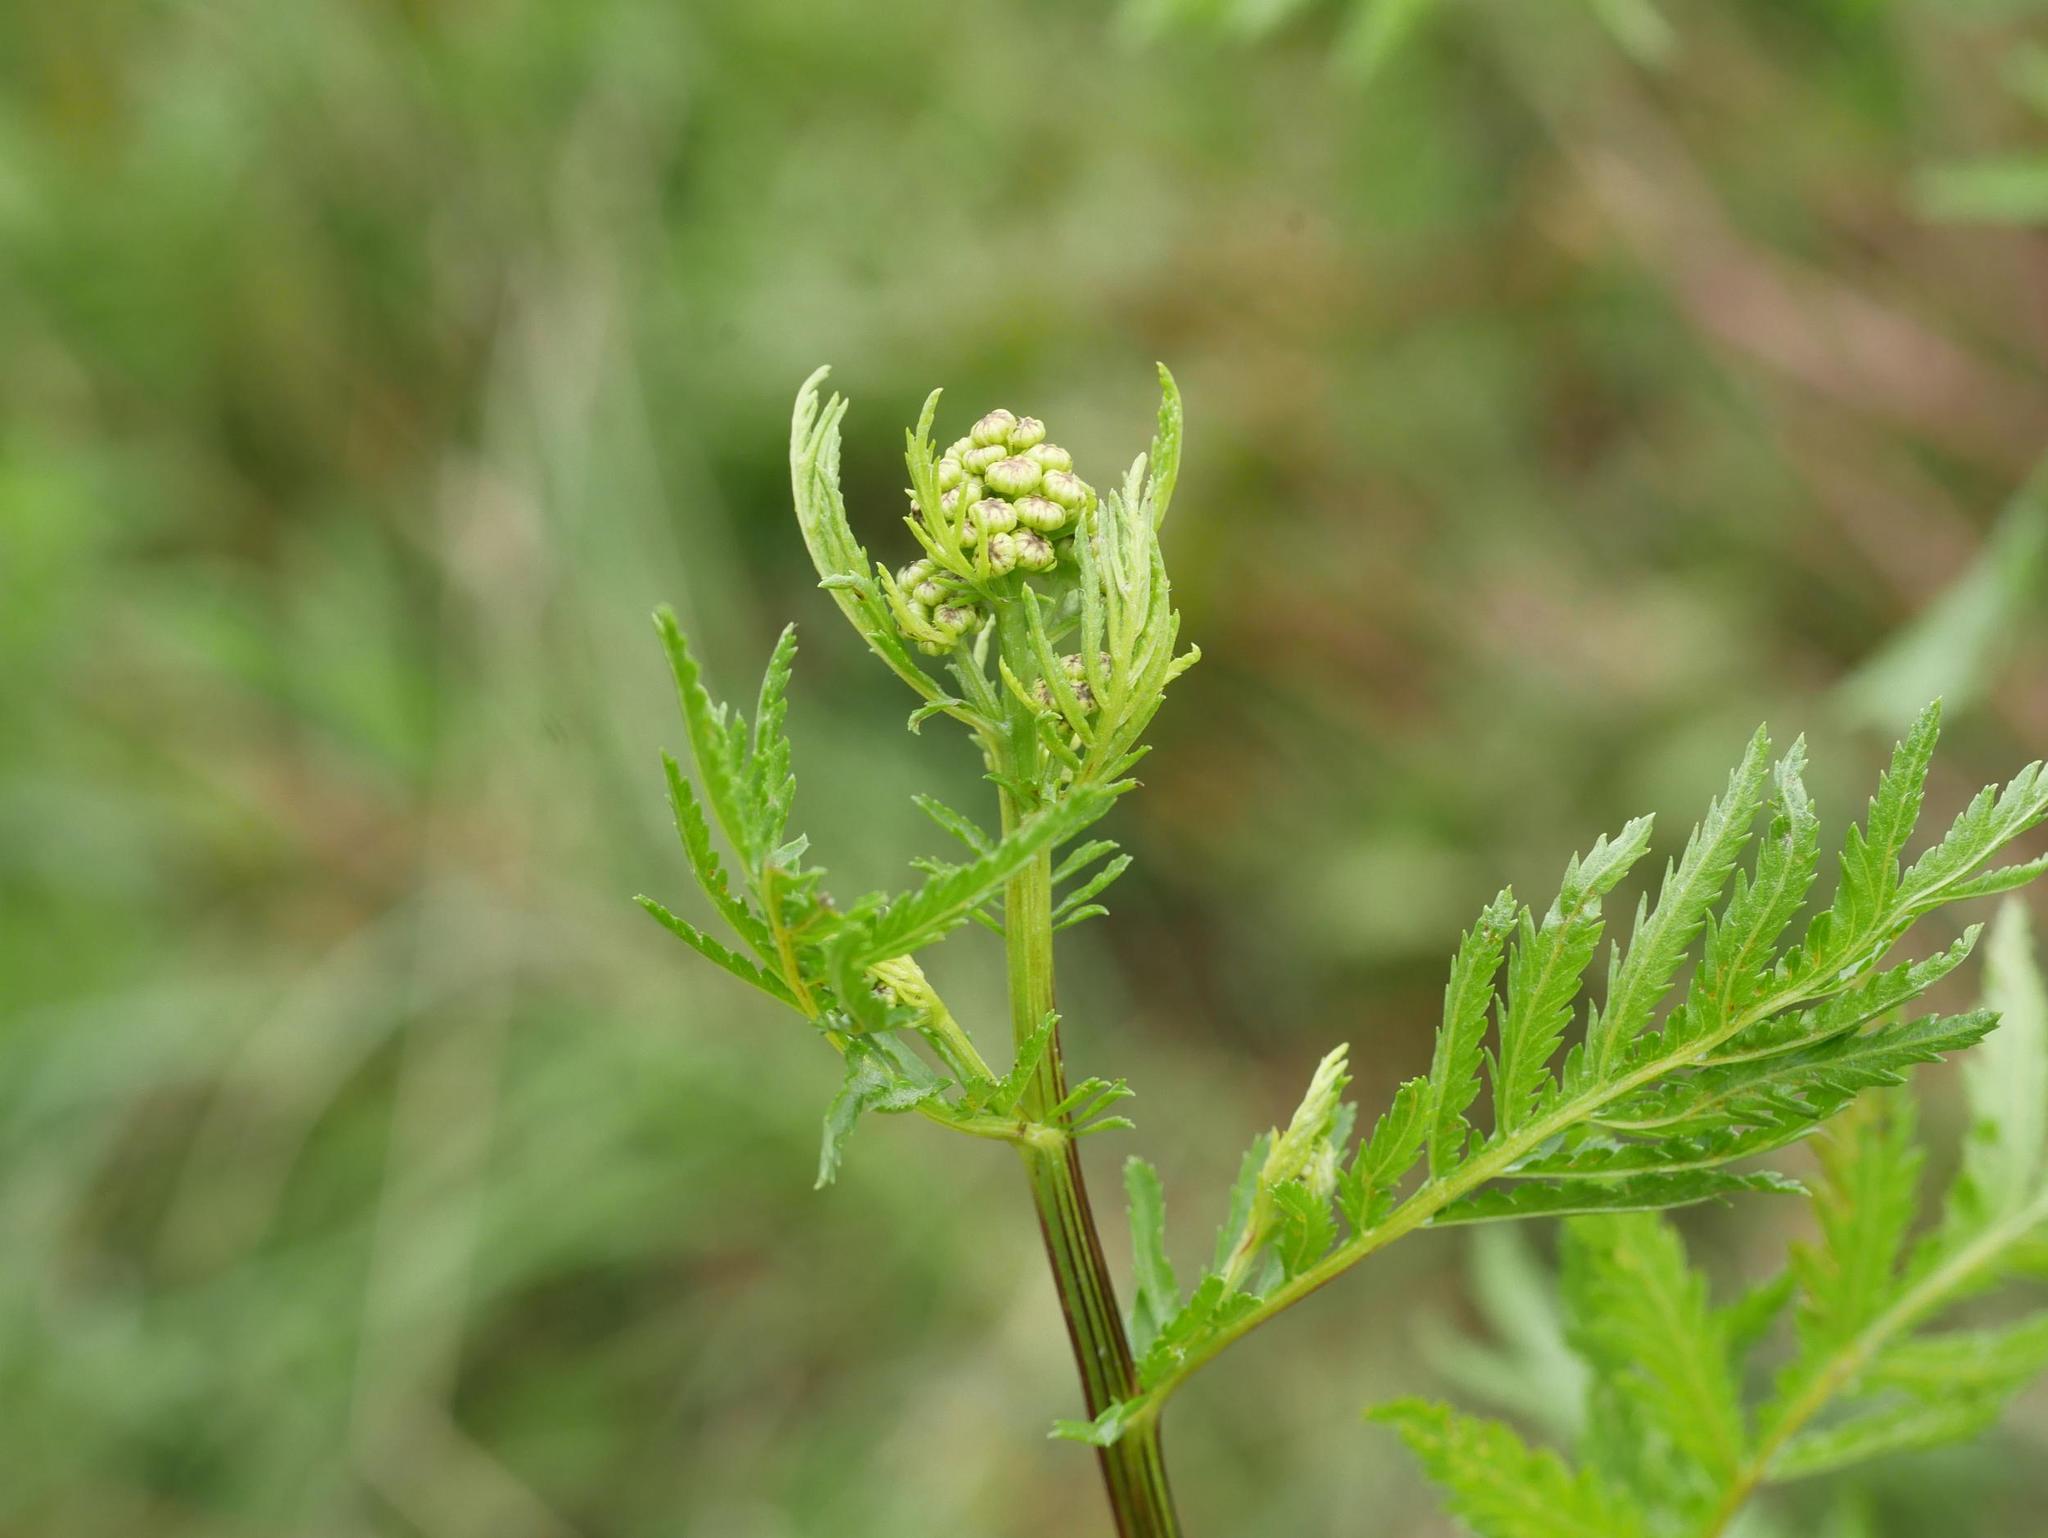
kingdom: Plantae
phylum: Tracheophyta
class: Magnoliopsida
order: Asterales
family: Asteraceae
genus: Tanacetum
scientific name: Tanacetum vulgare
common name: Common tansy
